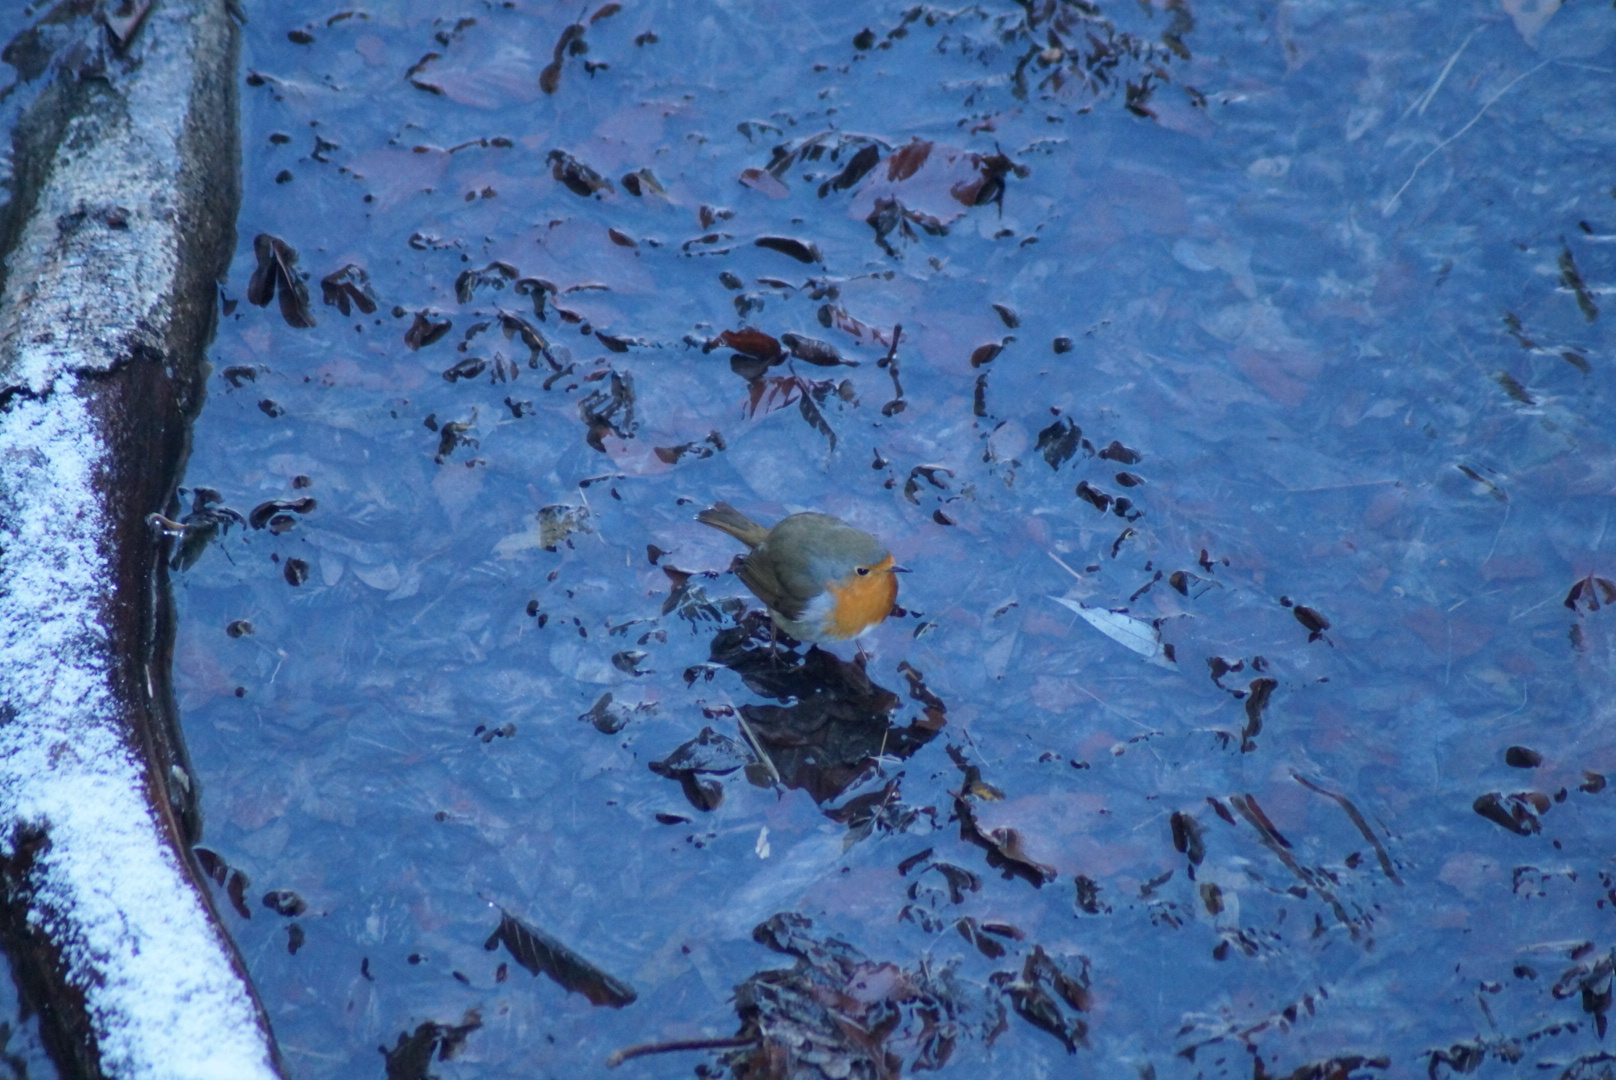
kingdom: Animalia
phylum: Chordata
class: Aves
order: Passeriformes
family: Muscicapidae
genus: Erithacus
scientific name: Erithacus rubecula
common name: European robin
